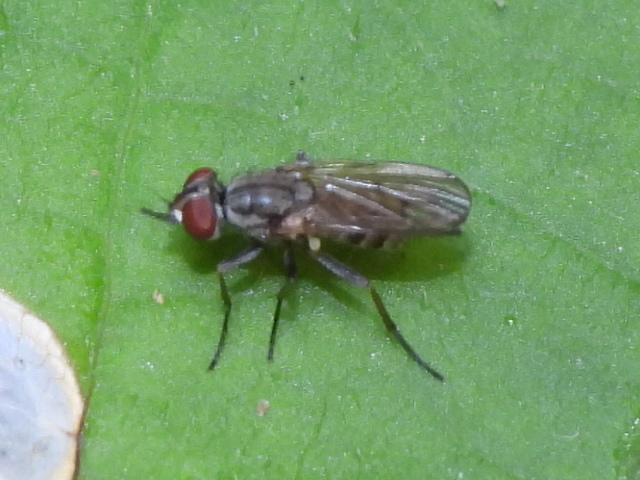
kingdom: Animalia
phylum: Arthropoda
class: Insecta
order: Diptera
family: Anthomyiidae
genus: Leucophora
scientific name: Leucophora johnsoni
